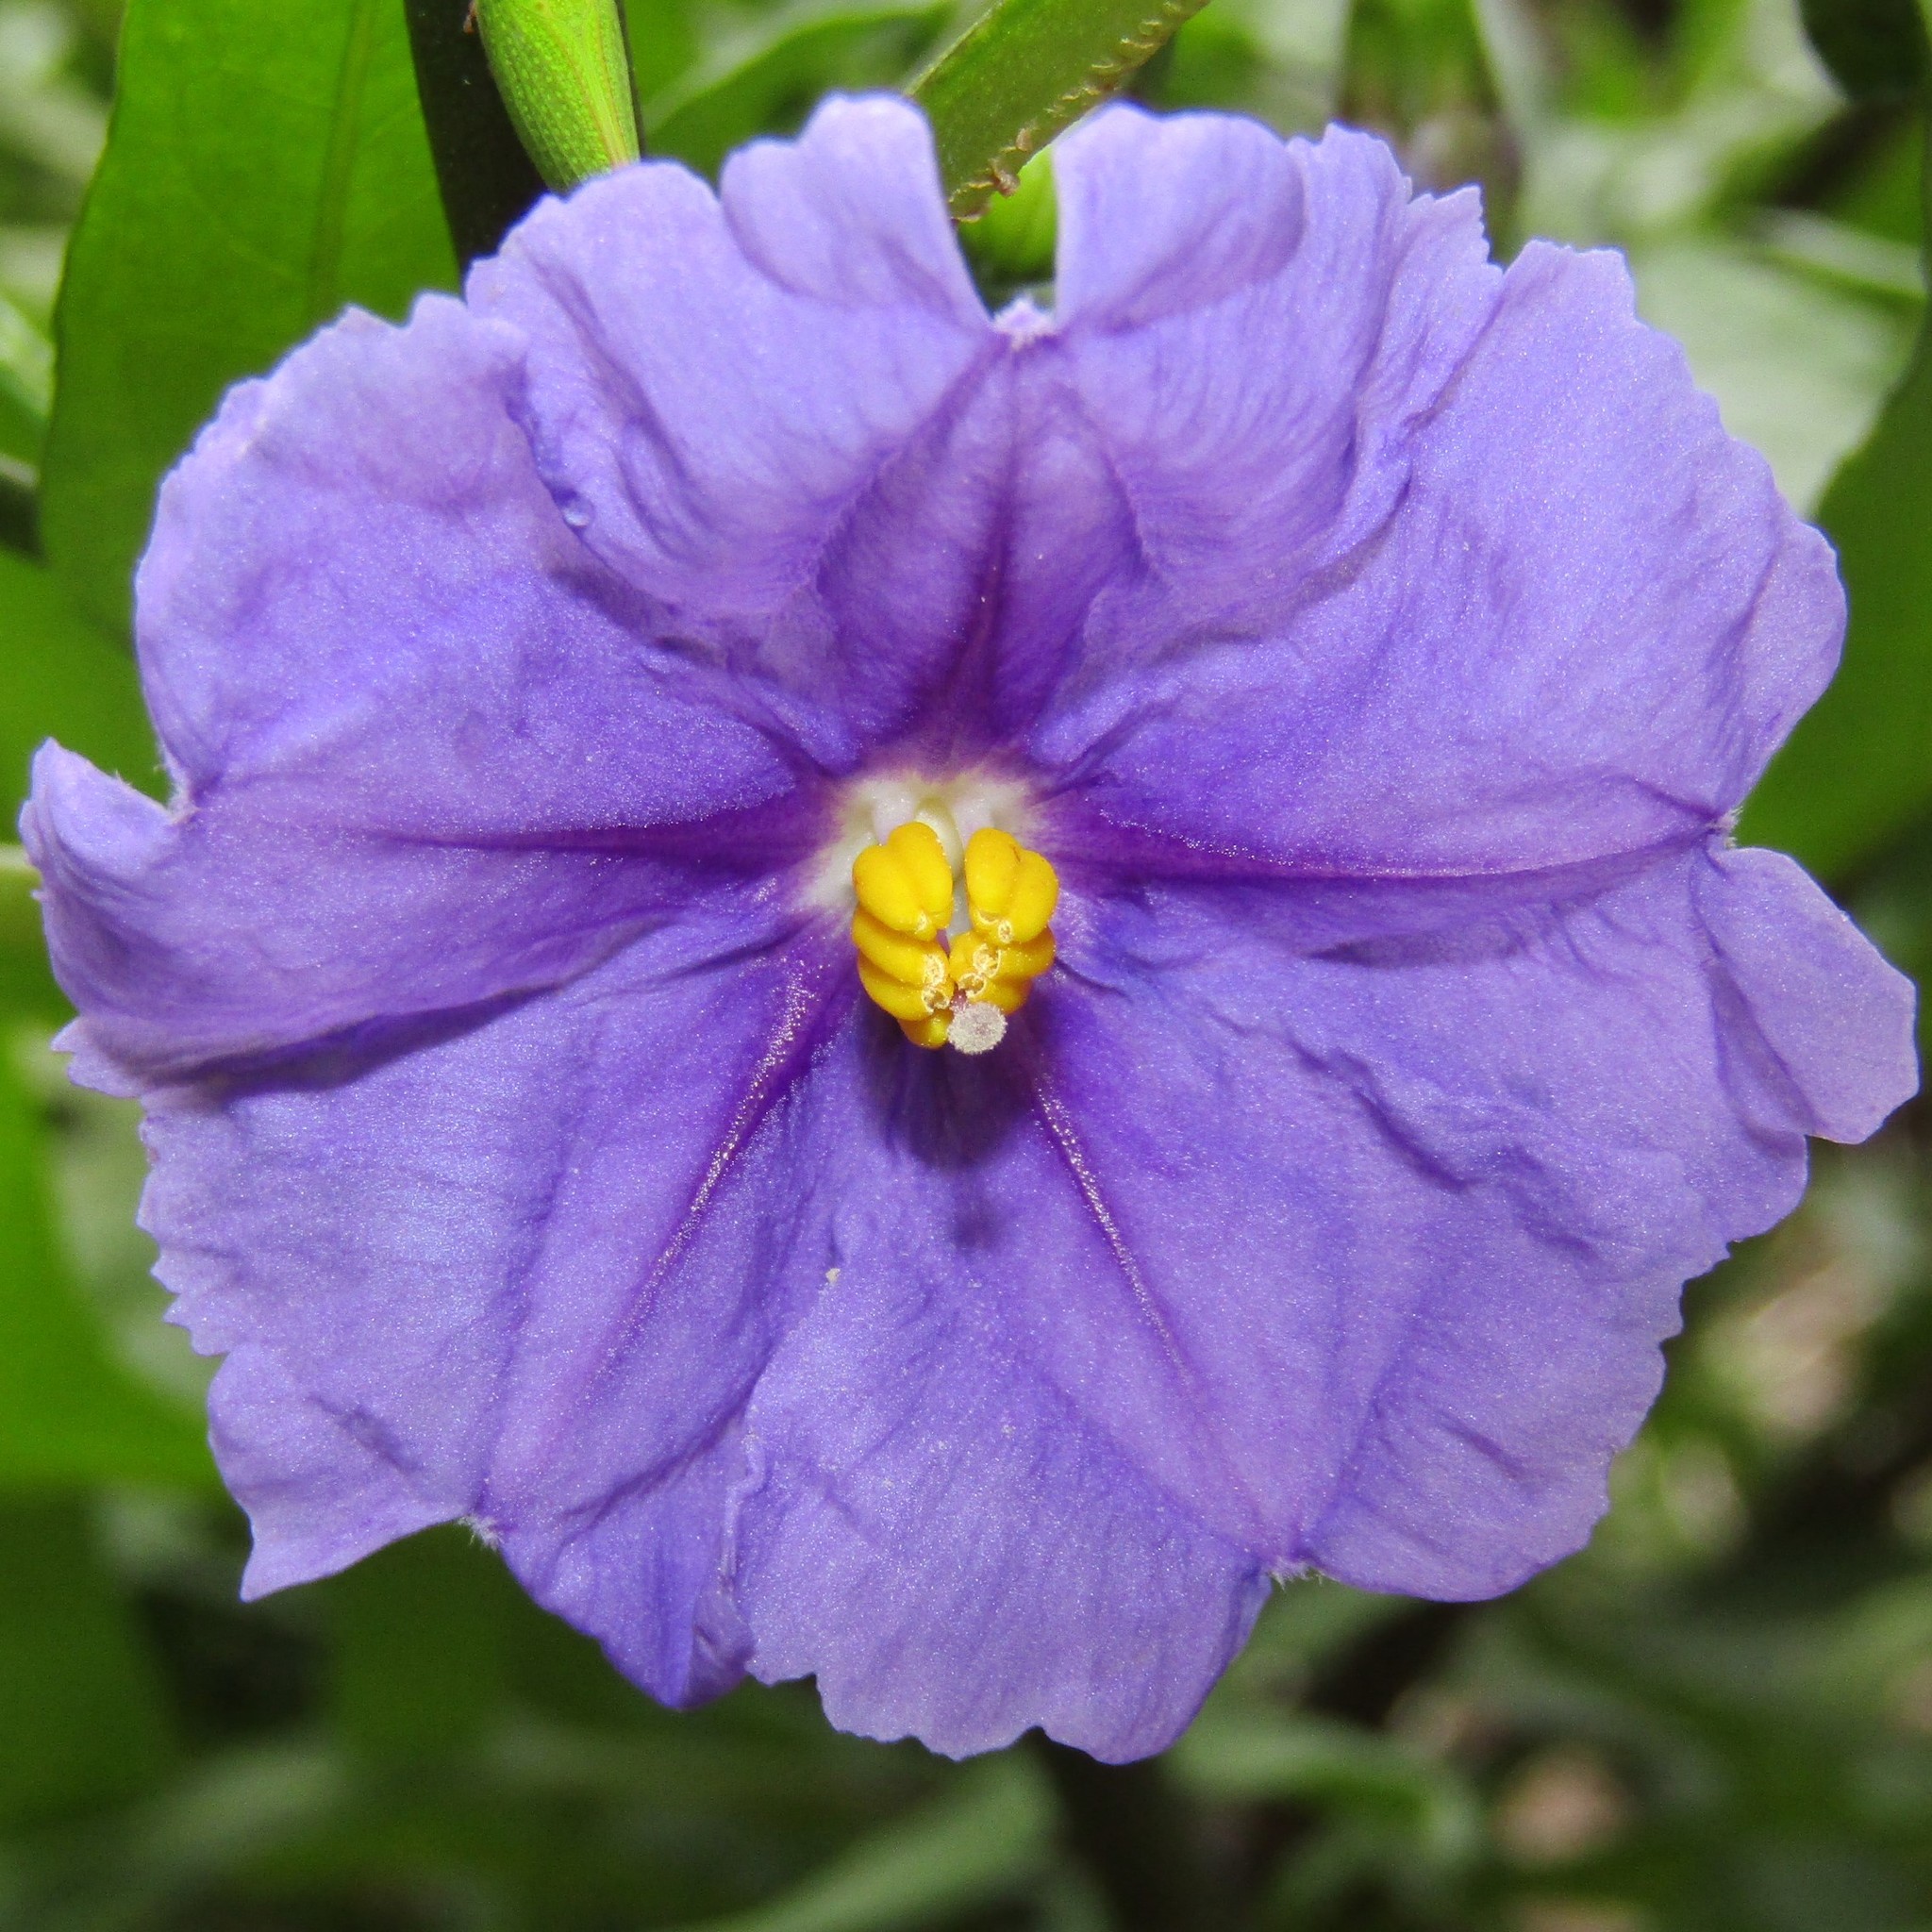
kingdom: Plantae
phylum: Tracheophyta
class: Magnoliopsida
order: Solanales
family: Solanaceae
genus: Solanum
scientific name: Solanum laciniatum
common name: Kangaroo-apple
